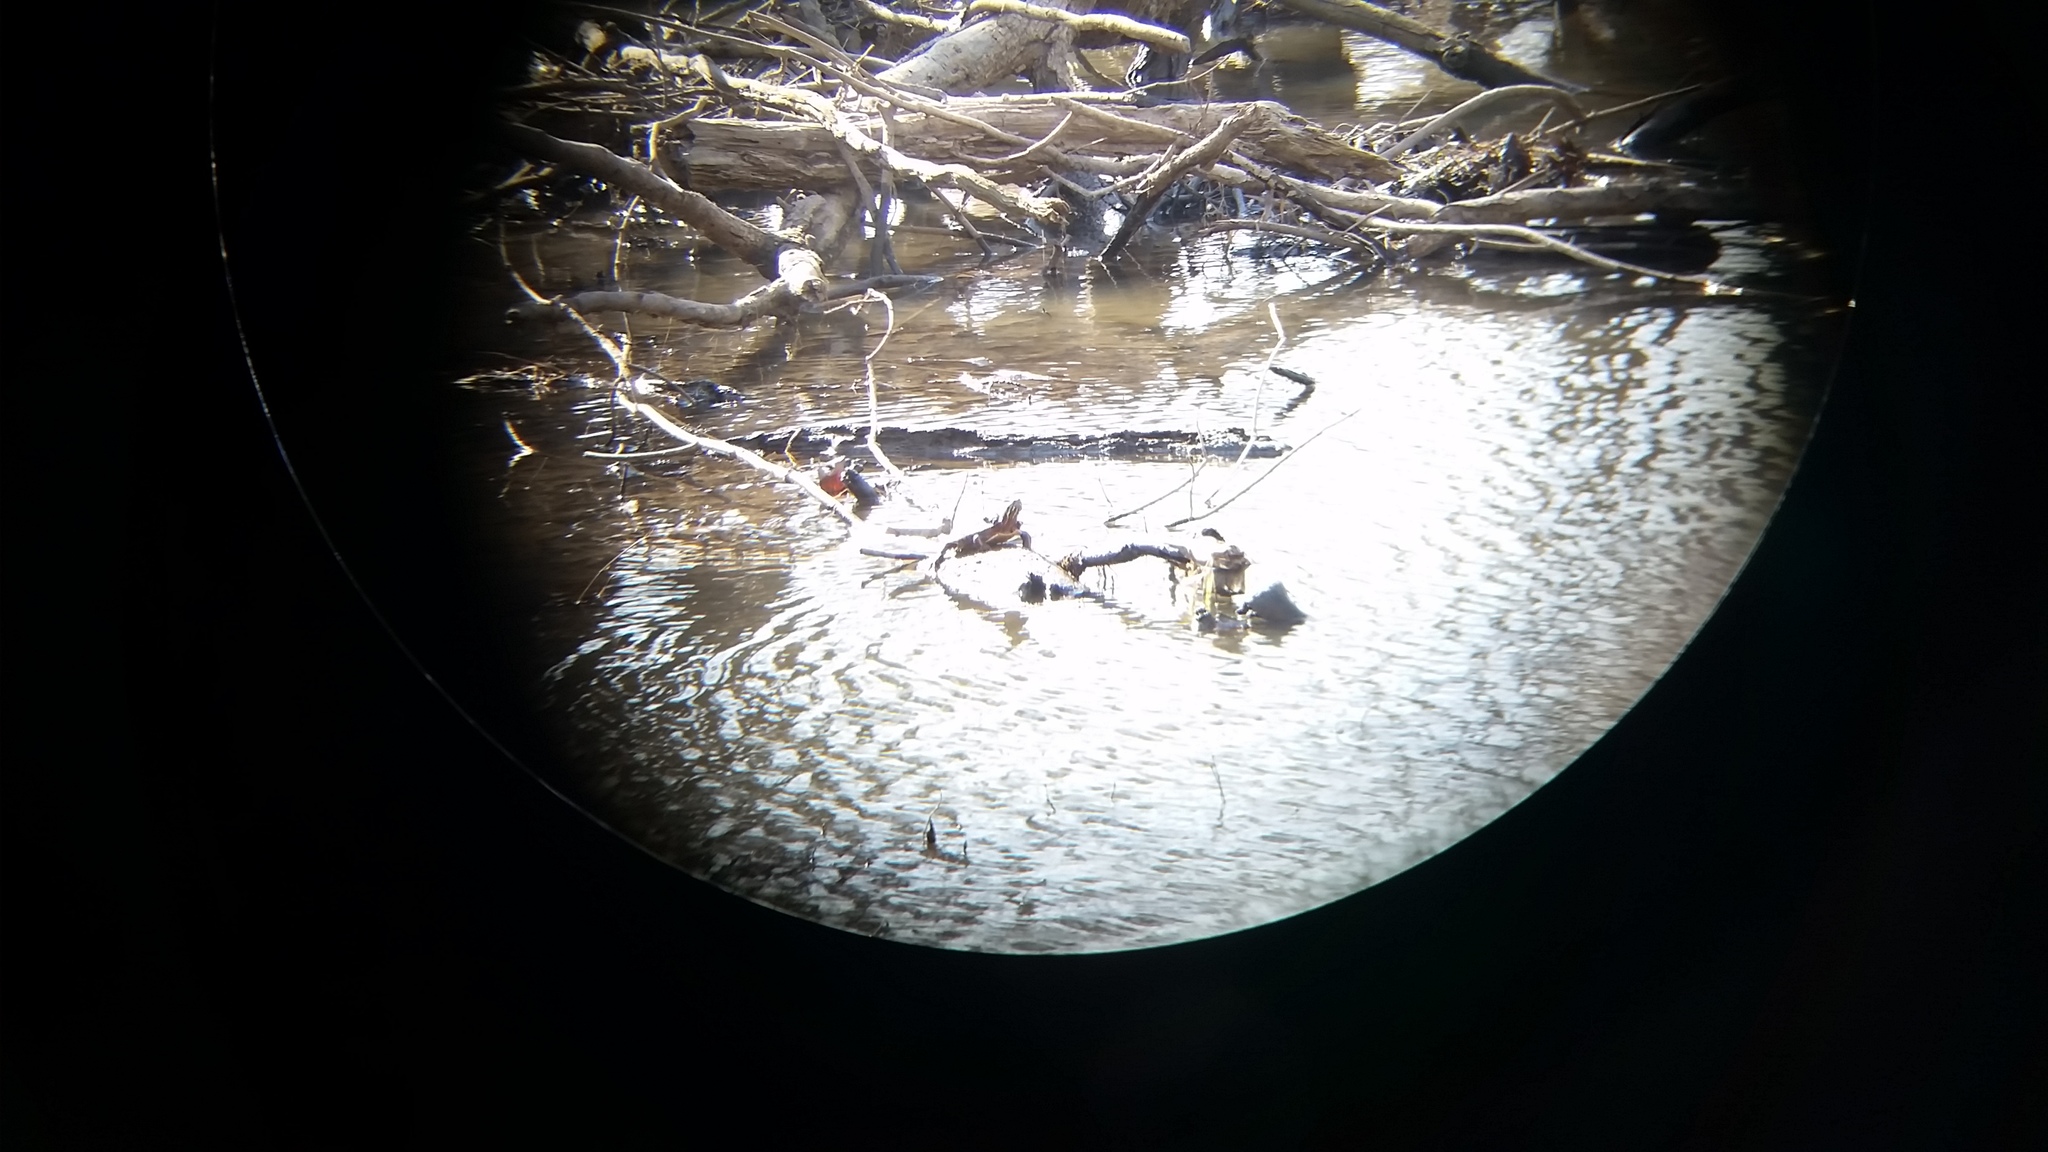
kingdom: Animalia
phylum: Chordata
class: Testudines
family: Emydidae
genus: Chrysemys
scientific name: Chrysemys picta
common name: Painted turtle
